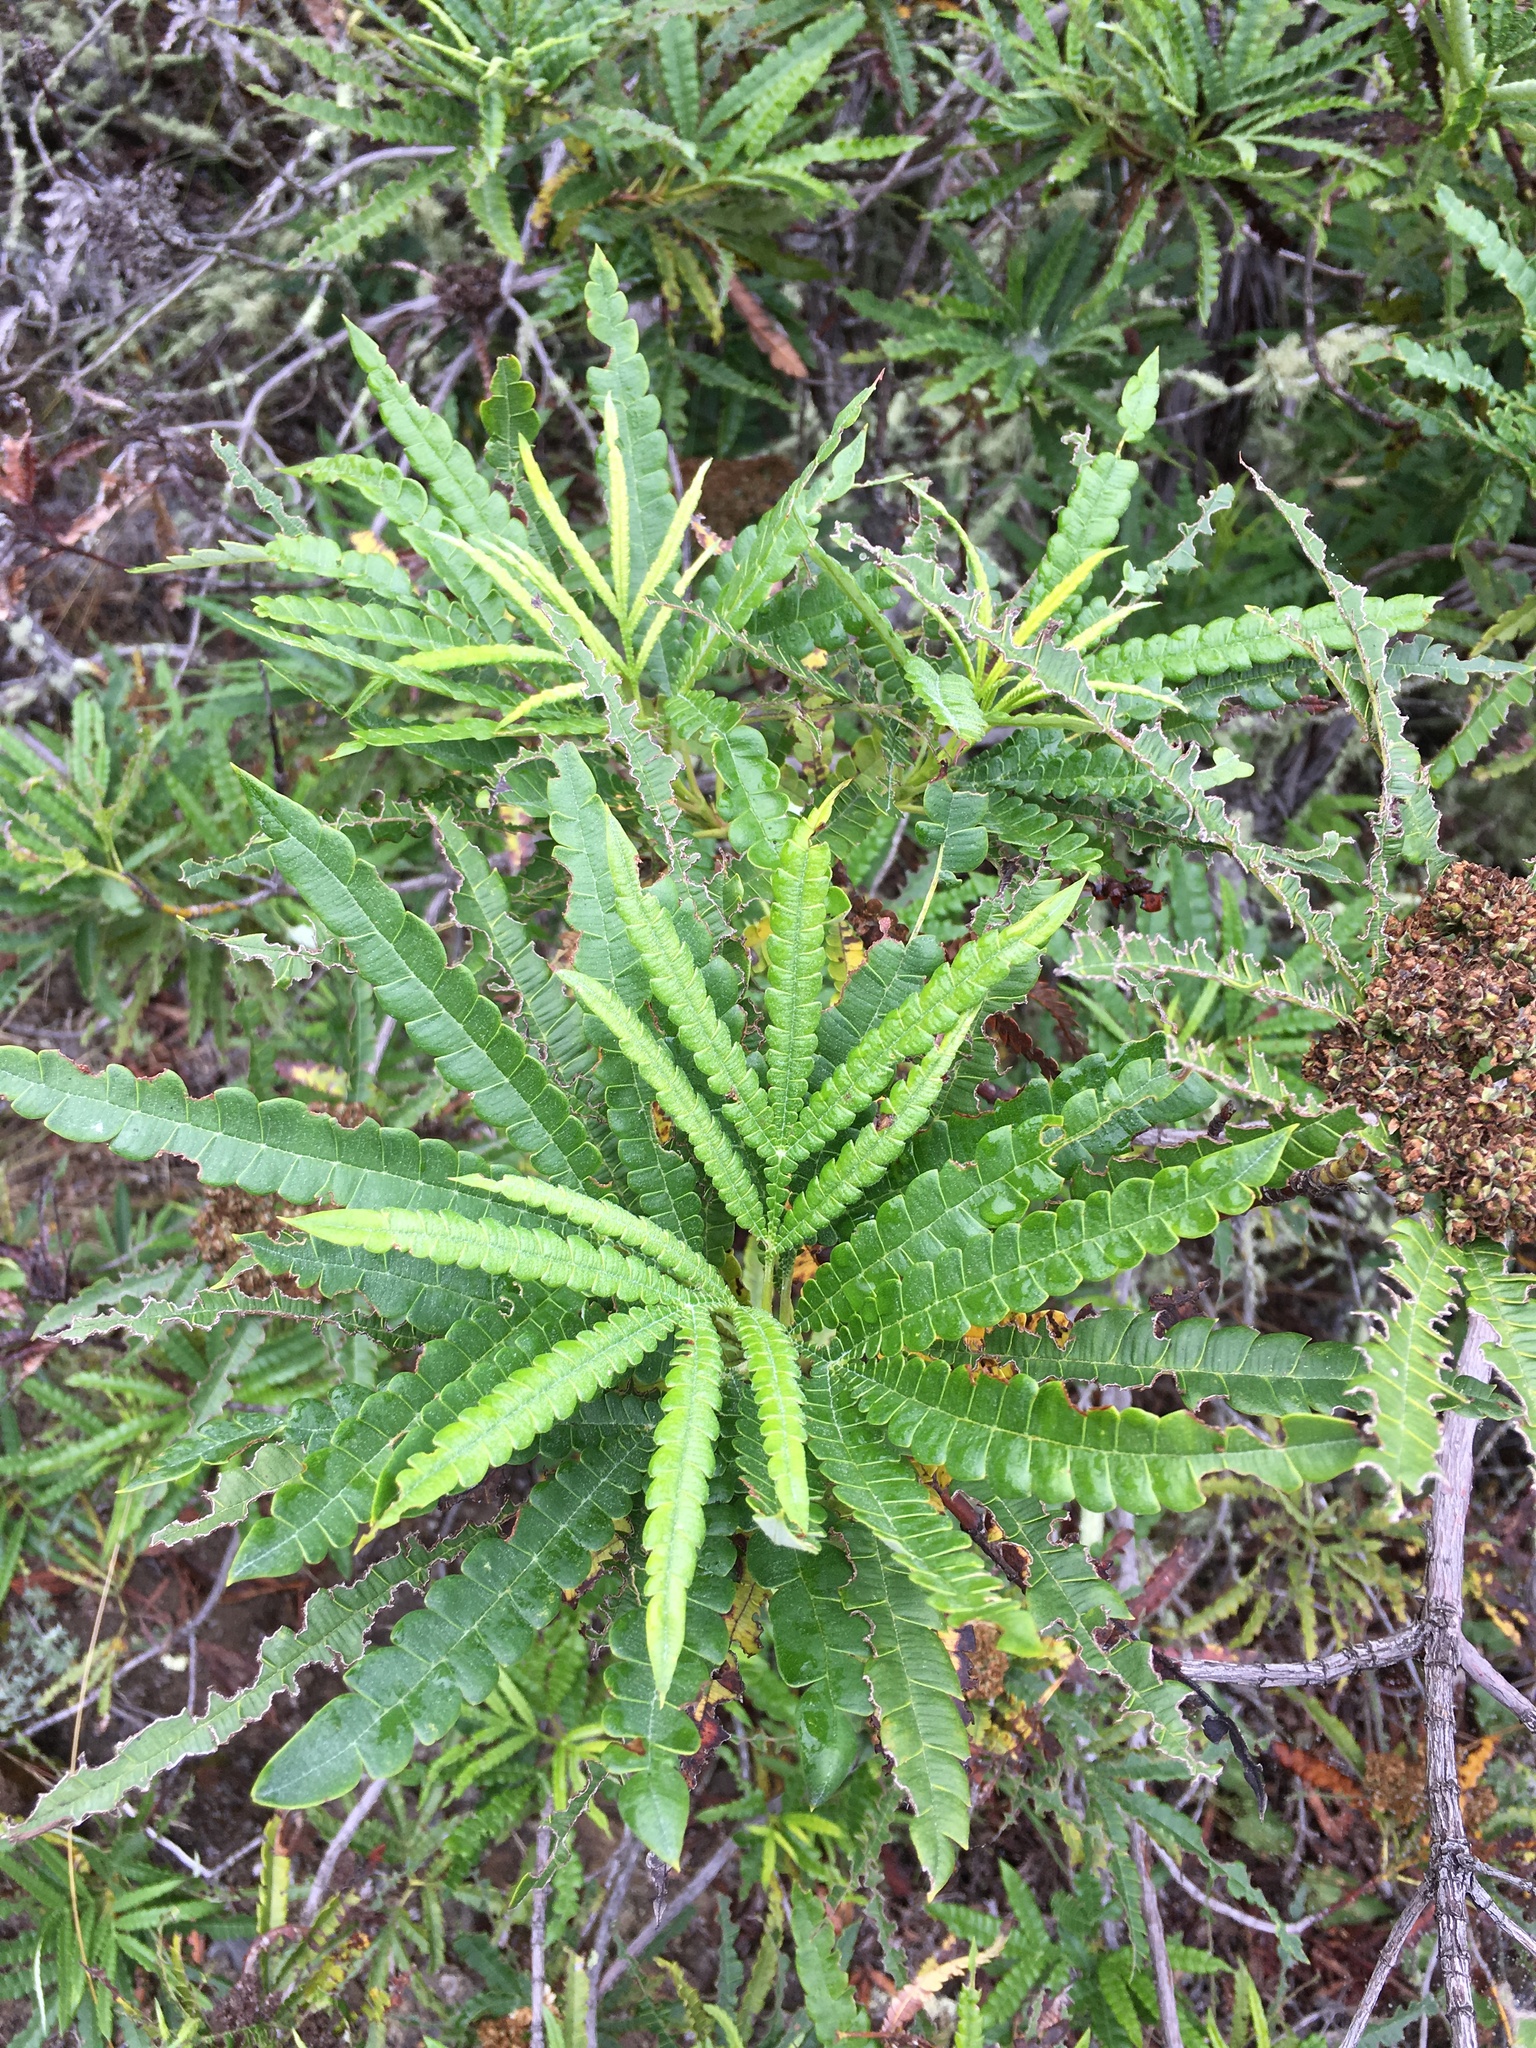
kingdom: Plantae
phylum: Tracheophyta
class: Magnoliopsida
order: Rosales
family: Rosaceae
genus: Lyonothamnus
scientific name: Lyonothamnus floribundus
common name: Catalina ironwood
